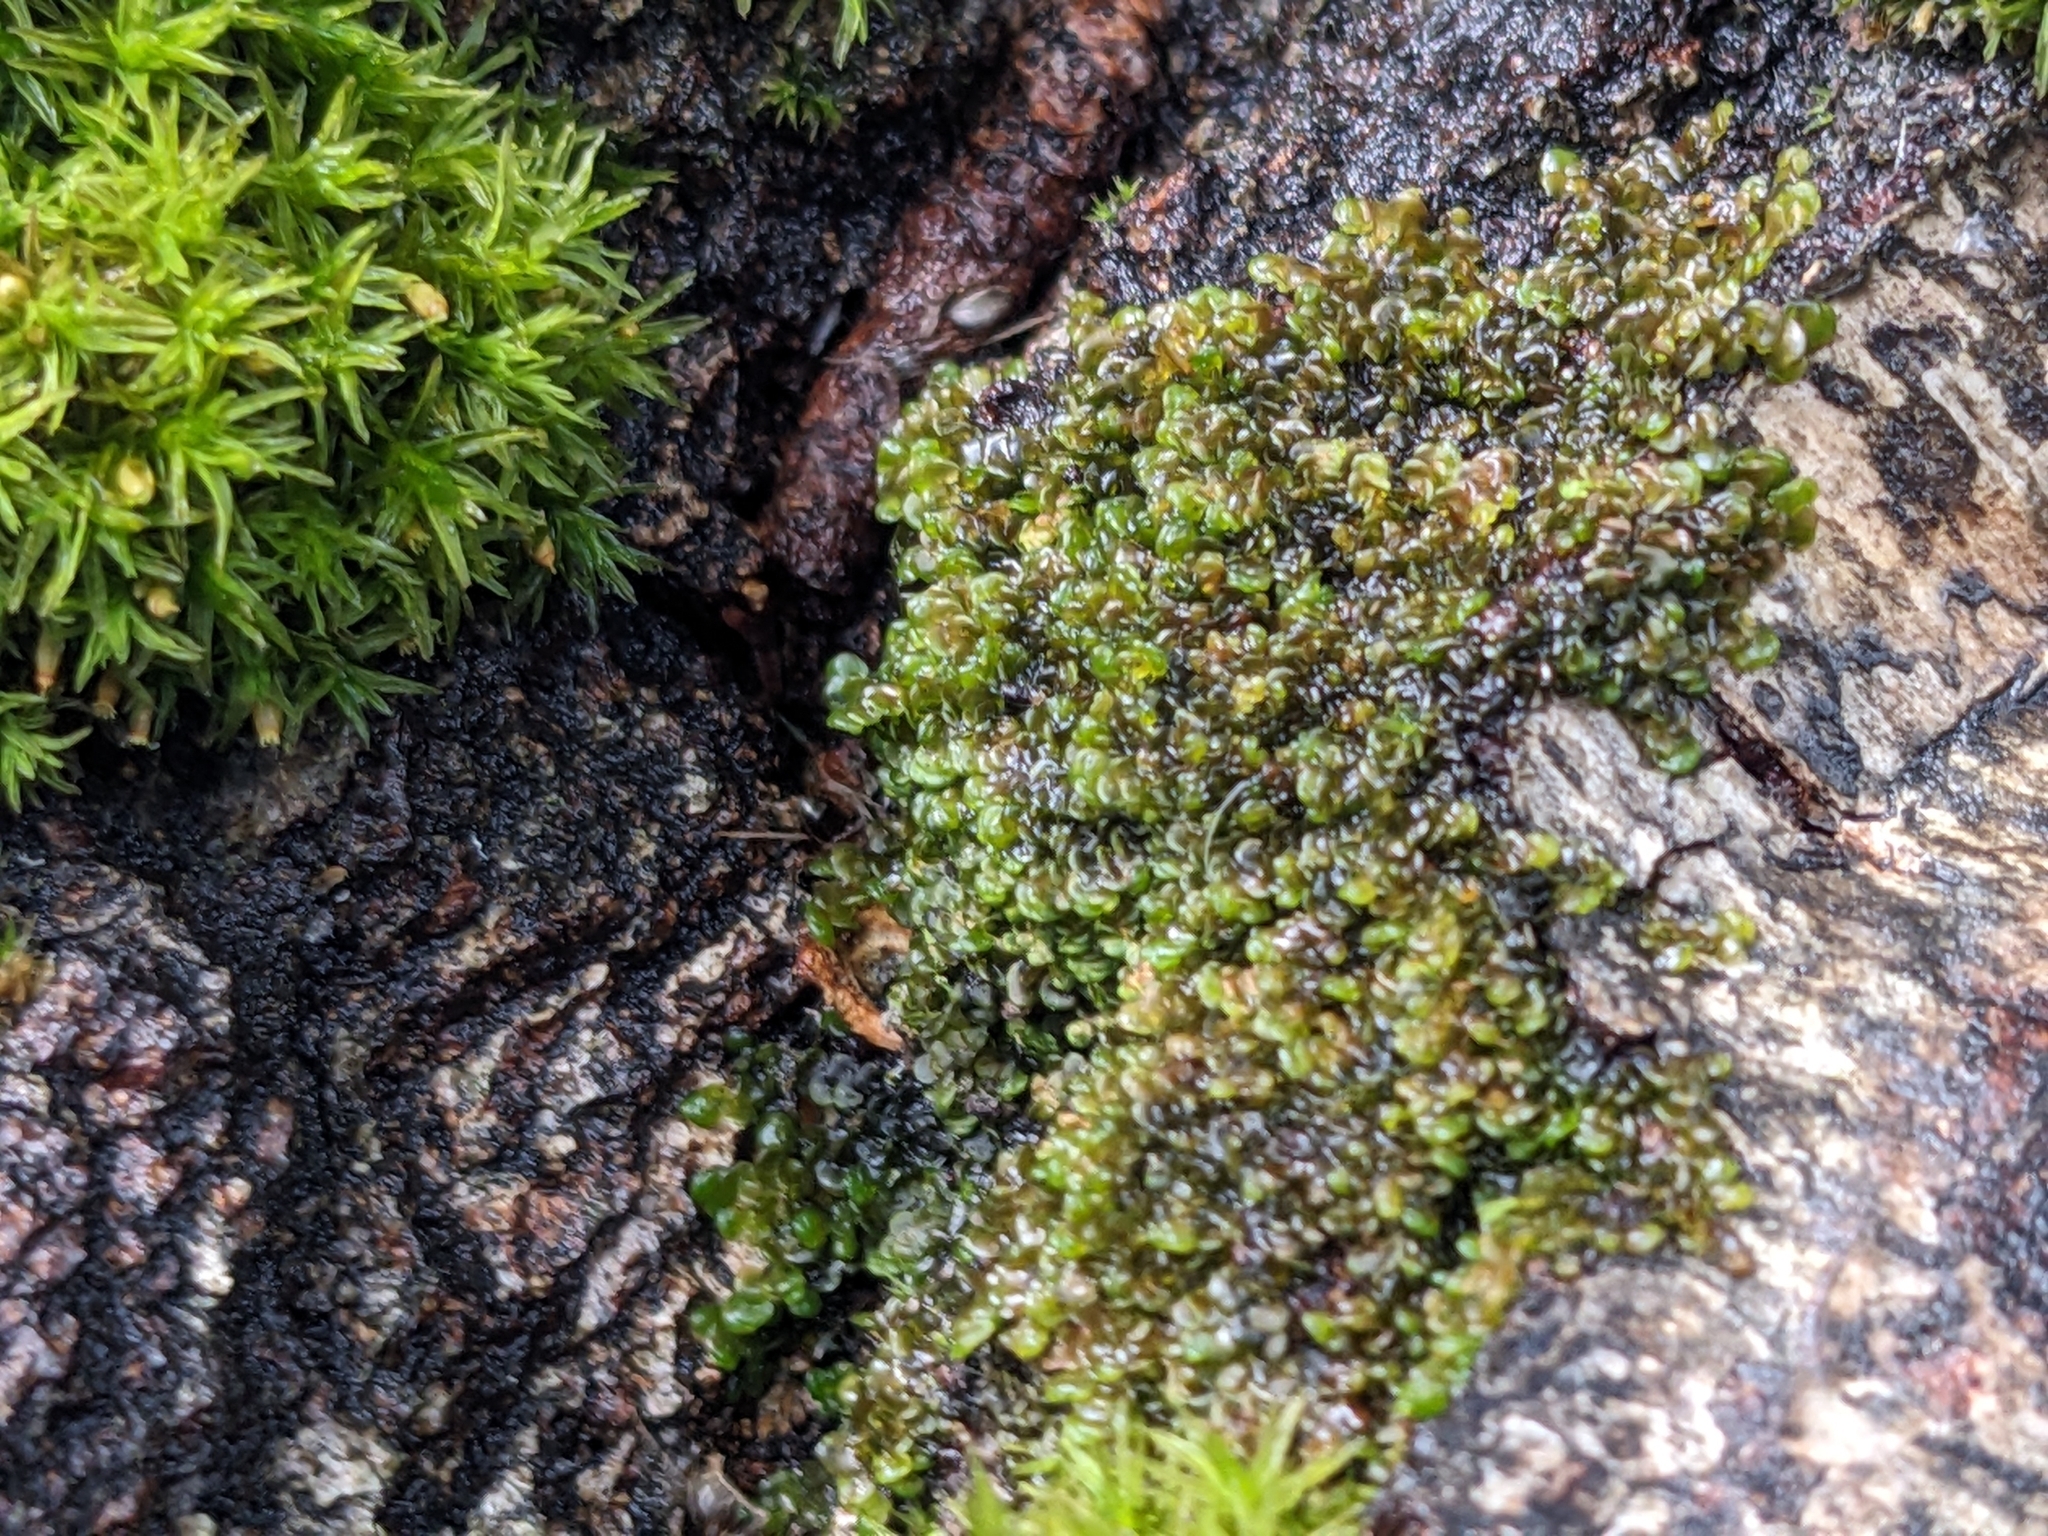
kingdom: Plantae
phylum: Marchantiophyta
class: Jungermanniopsida
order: Porellales
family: Frullaniaceae
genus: Frullania
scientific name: Frullania dilatata
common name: Dilated scalewort
